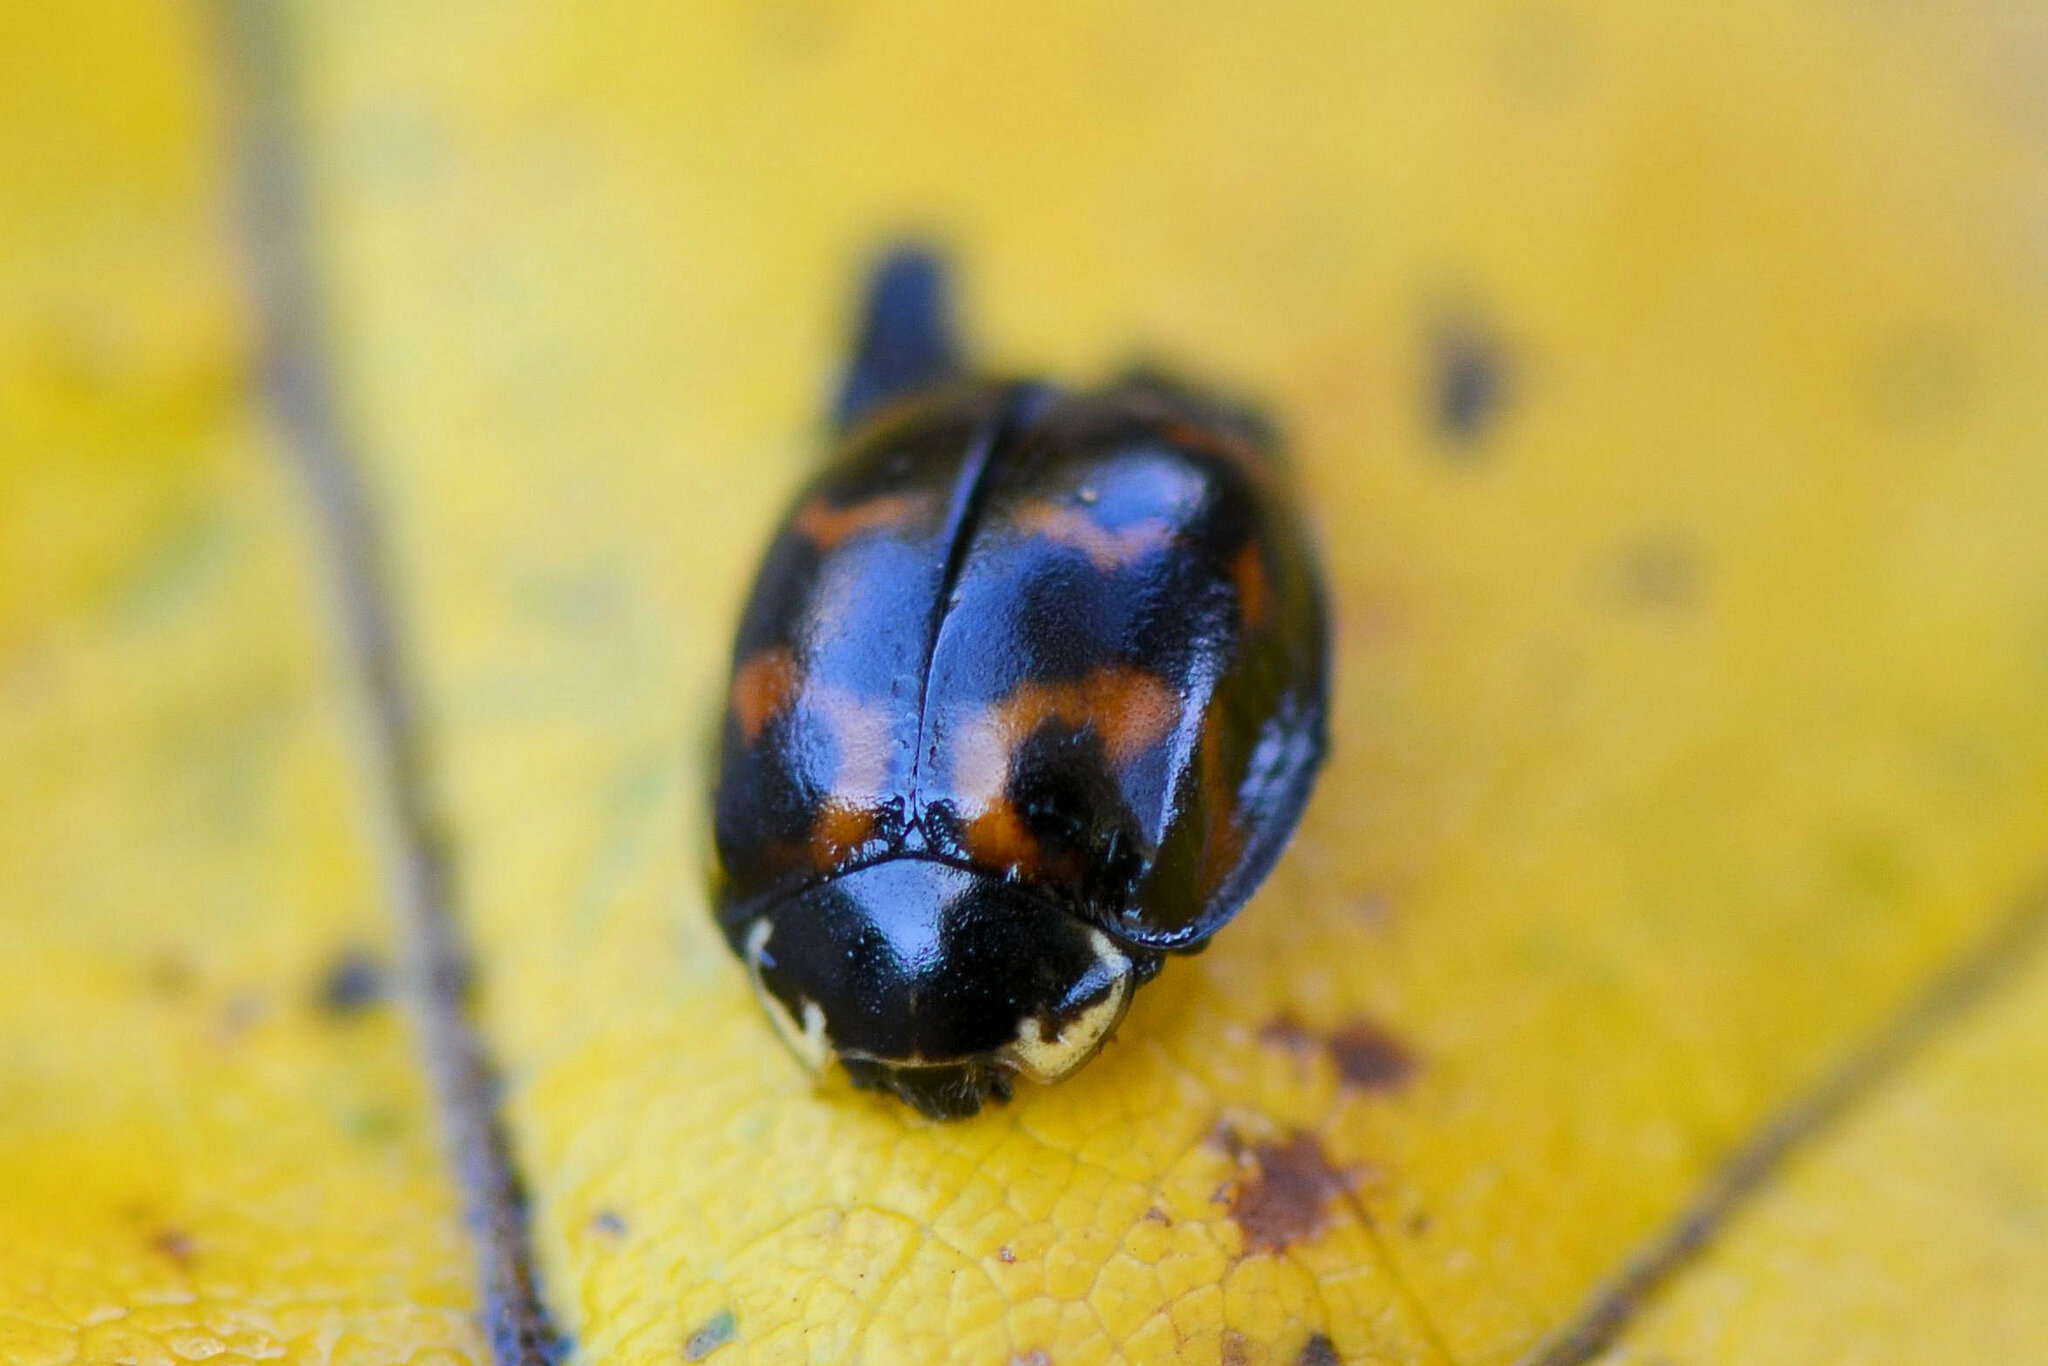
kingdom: Animalia
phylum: Arthropoda
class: Insecta
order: Coleoptera
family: Coccinellidae
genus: Harmonia
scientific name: Harmonia axyridis
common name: Harlequin ladybird
